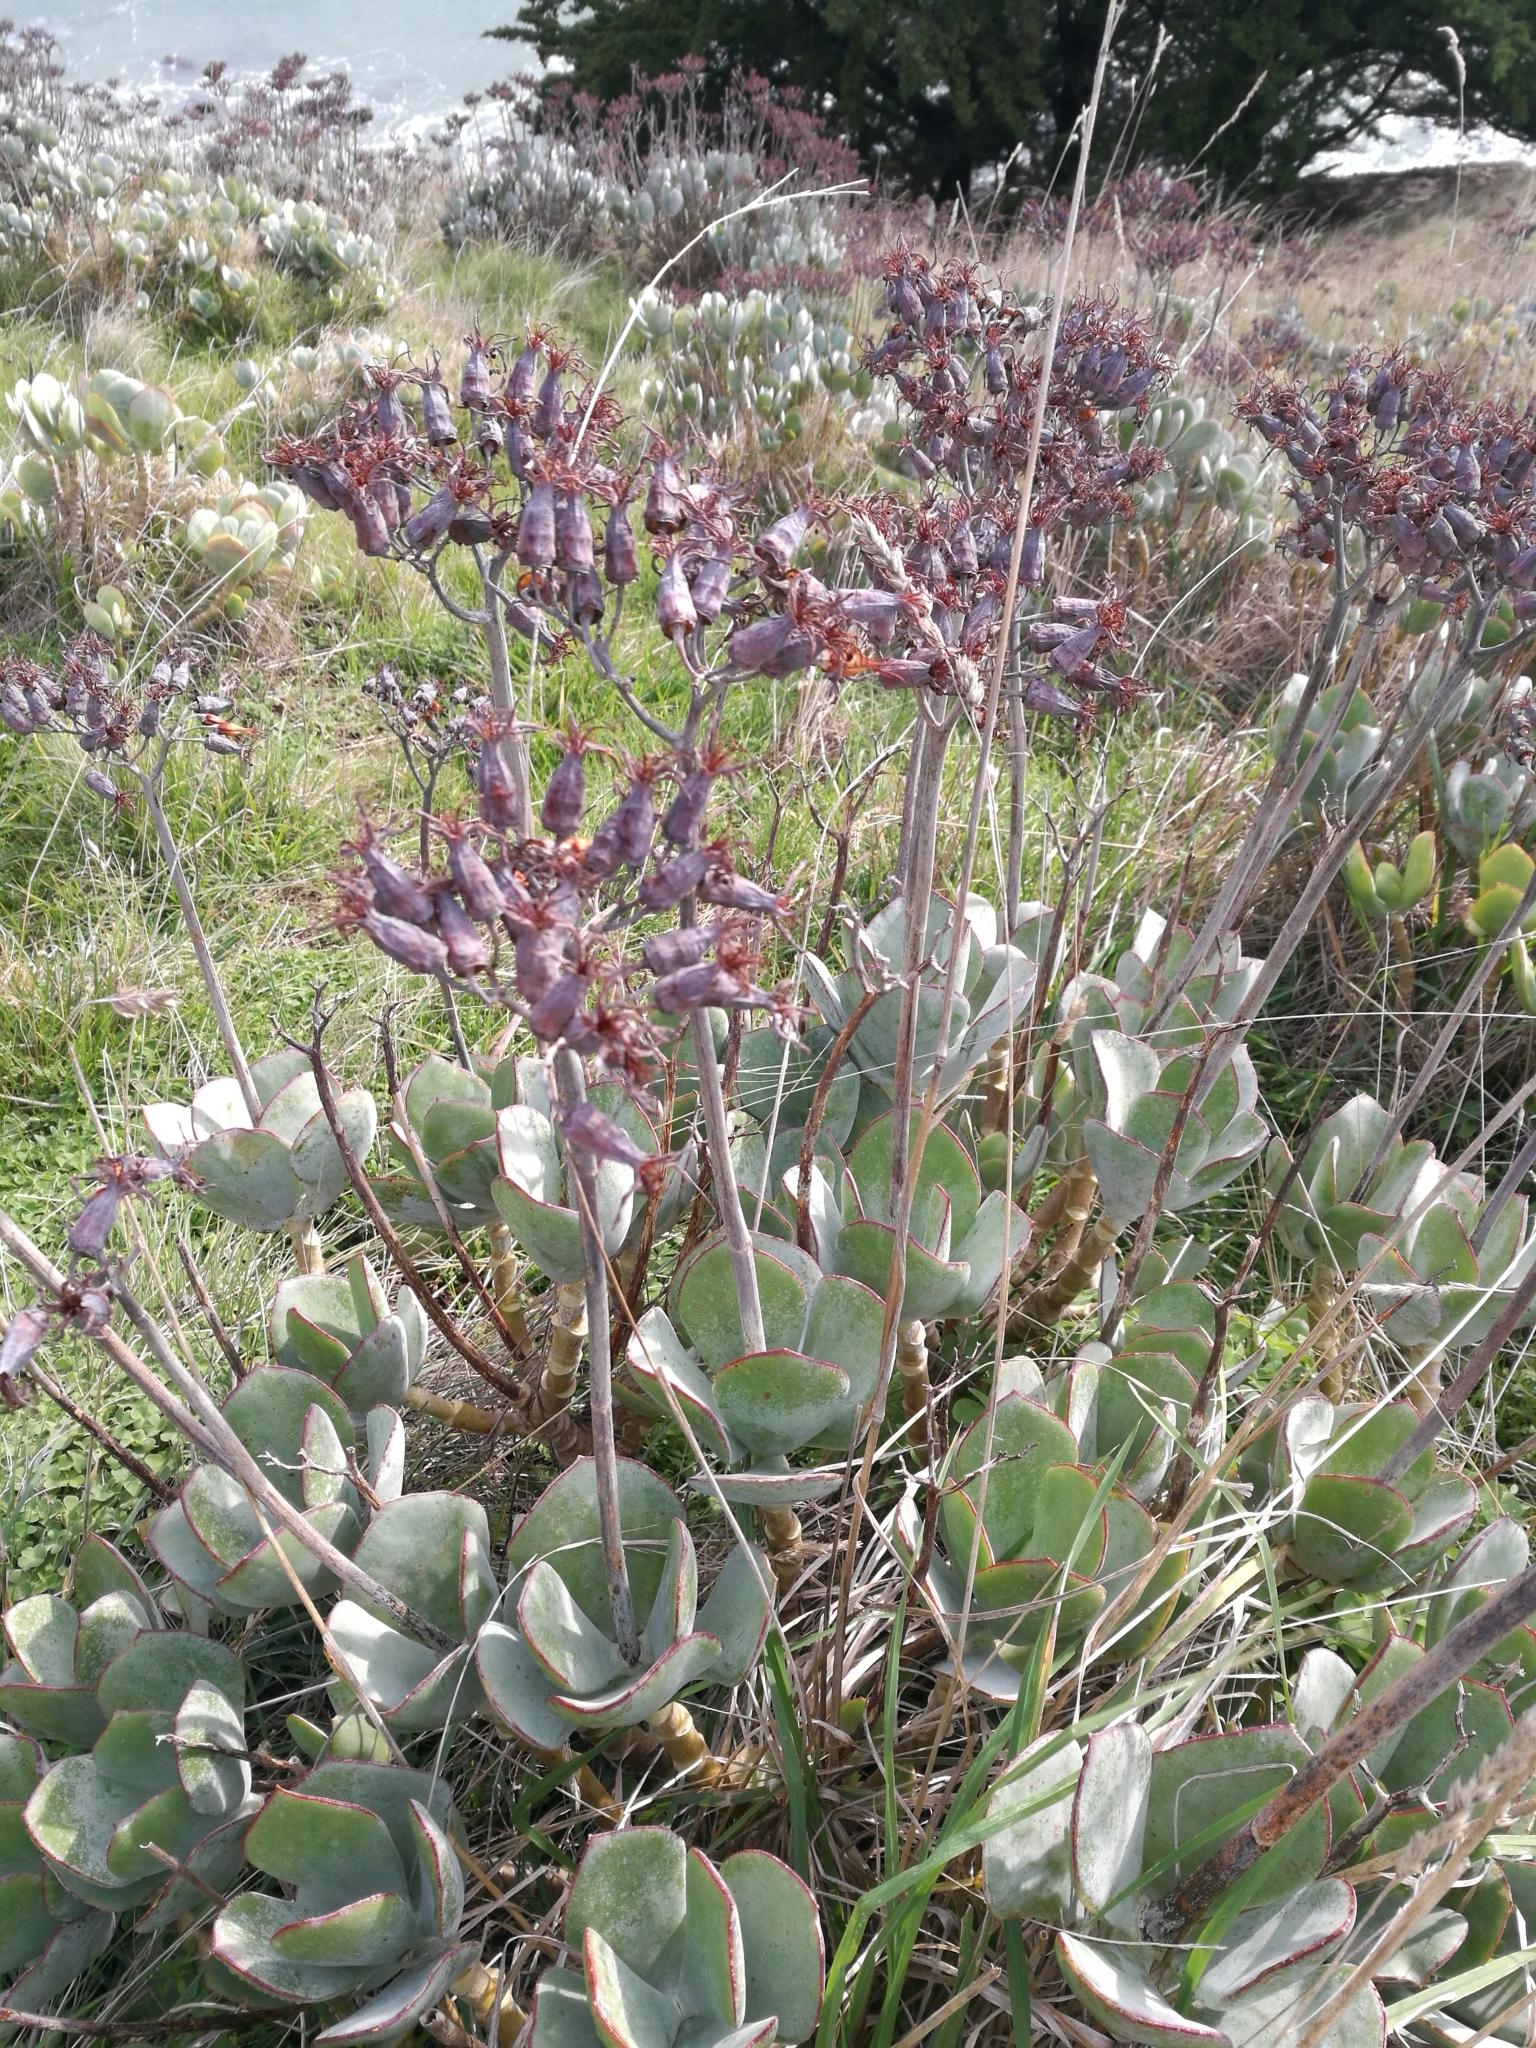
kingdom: Plantae
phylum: Tracheophyta
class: Magnoliopsida
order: Saxifragales
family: Crassulaceae
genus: Cotyledon
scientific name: Cotyledon orbiculata
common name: Pig's ear
